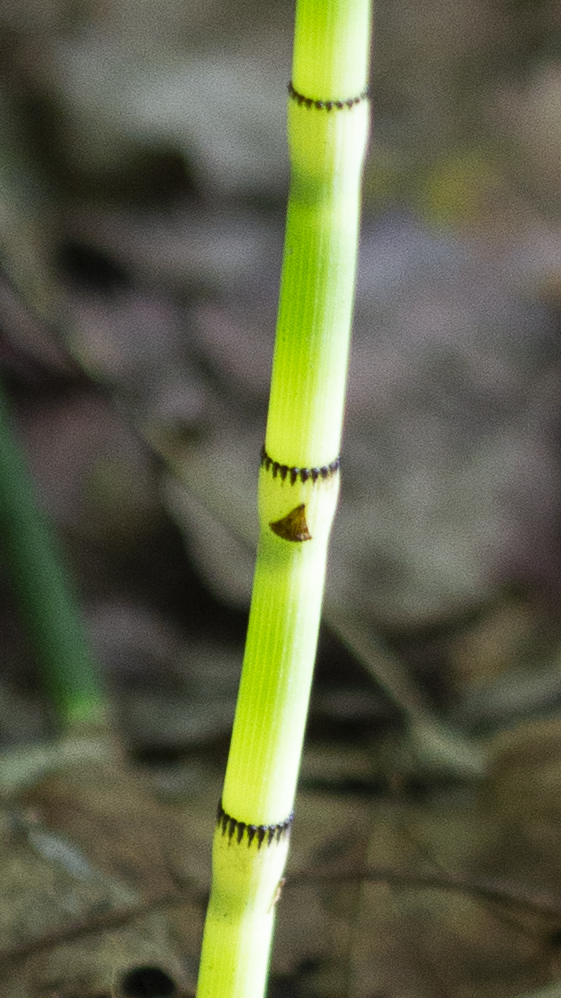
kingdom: Plantae
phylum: Tracheophyta
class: Polypodiopsida
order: Equisetales
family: Equisetaceae
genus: Equisetum
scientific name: Equisetum praealtum
